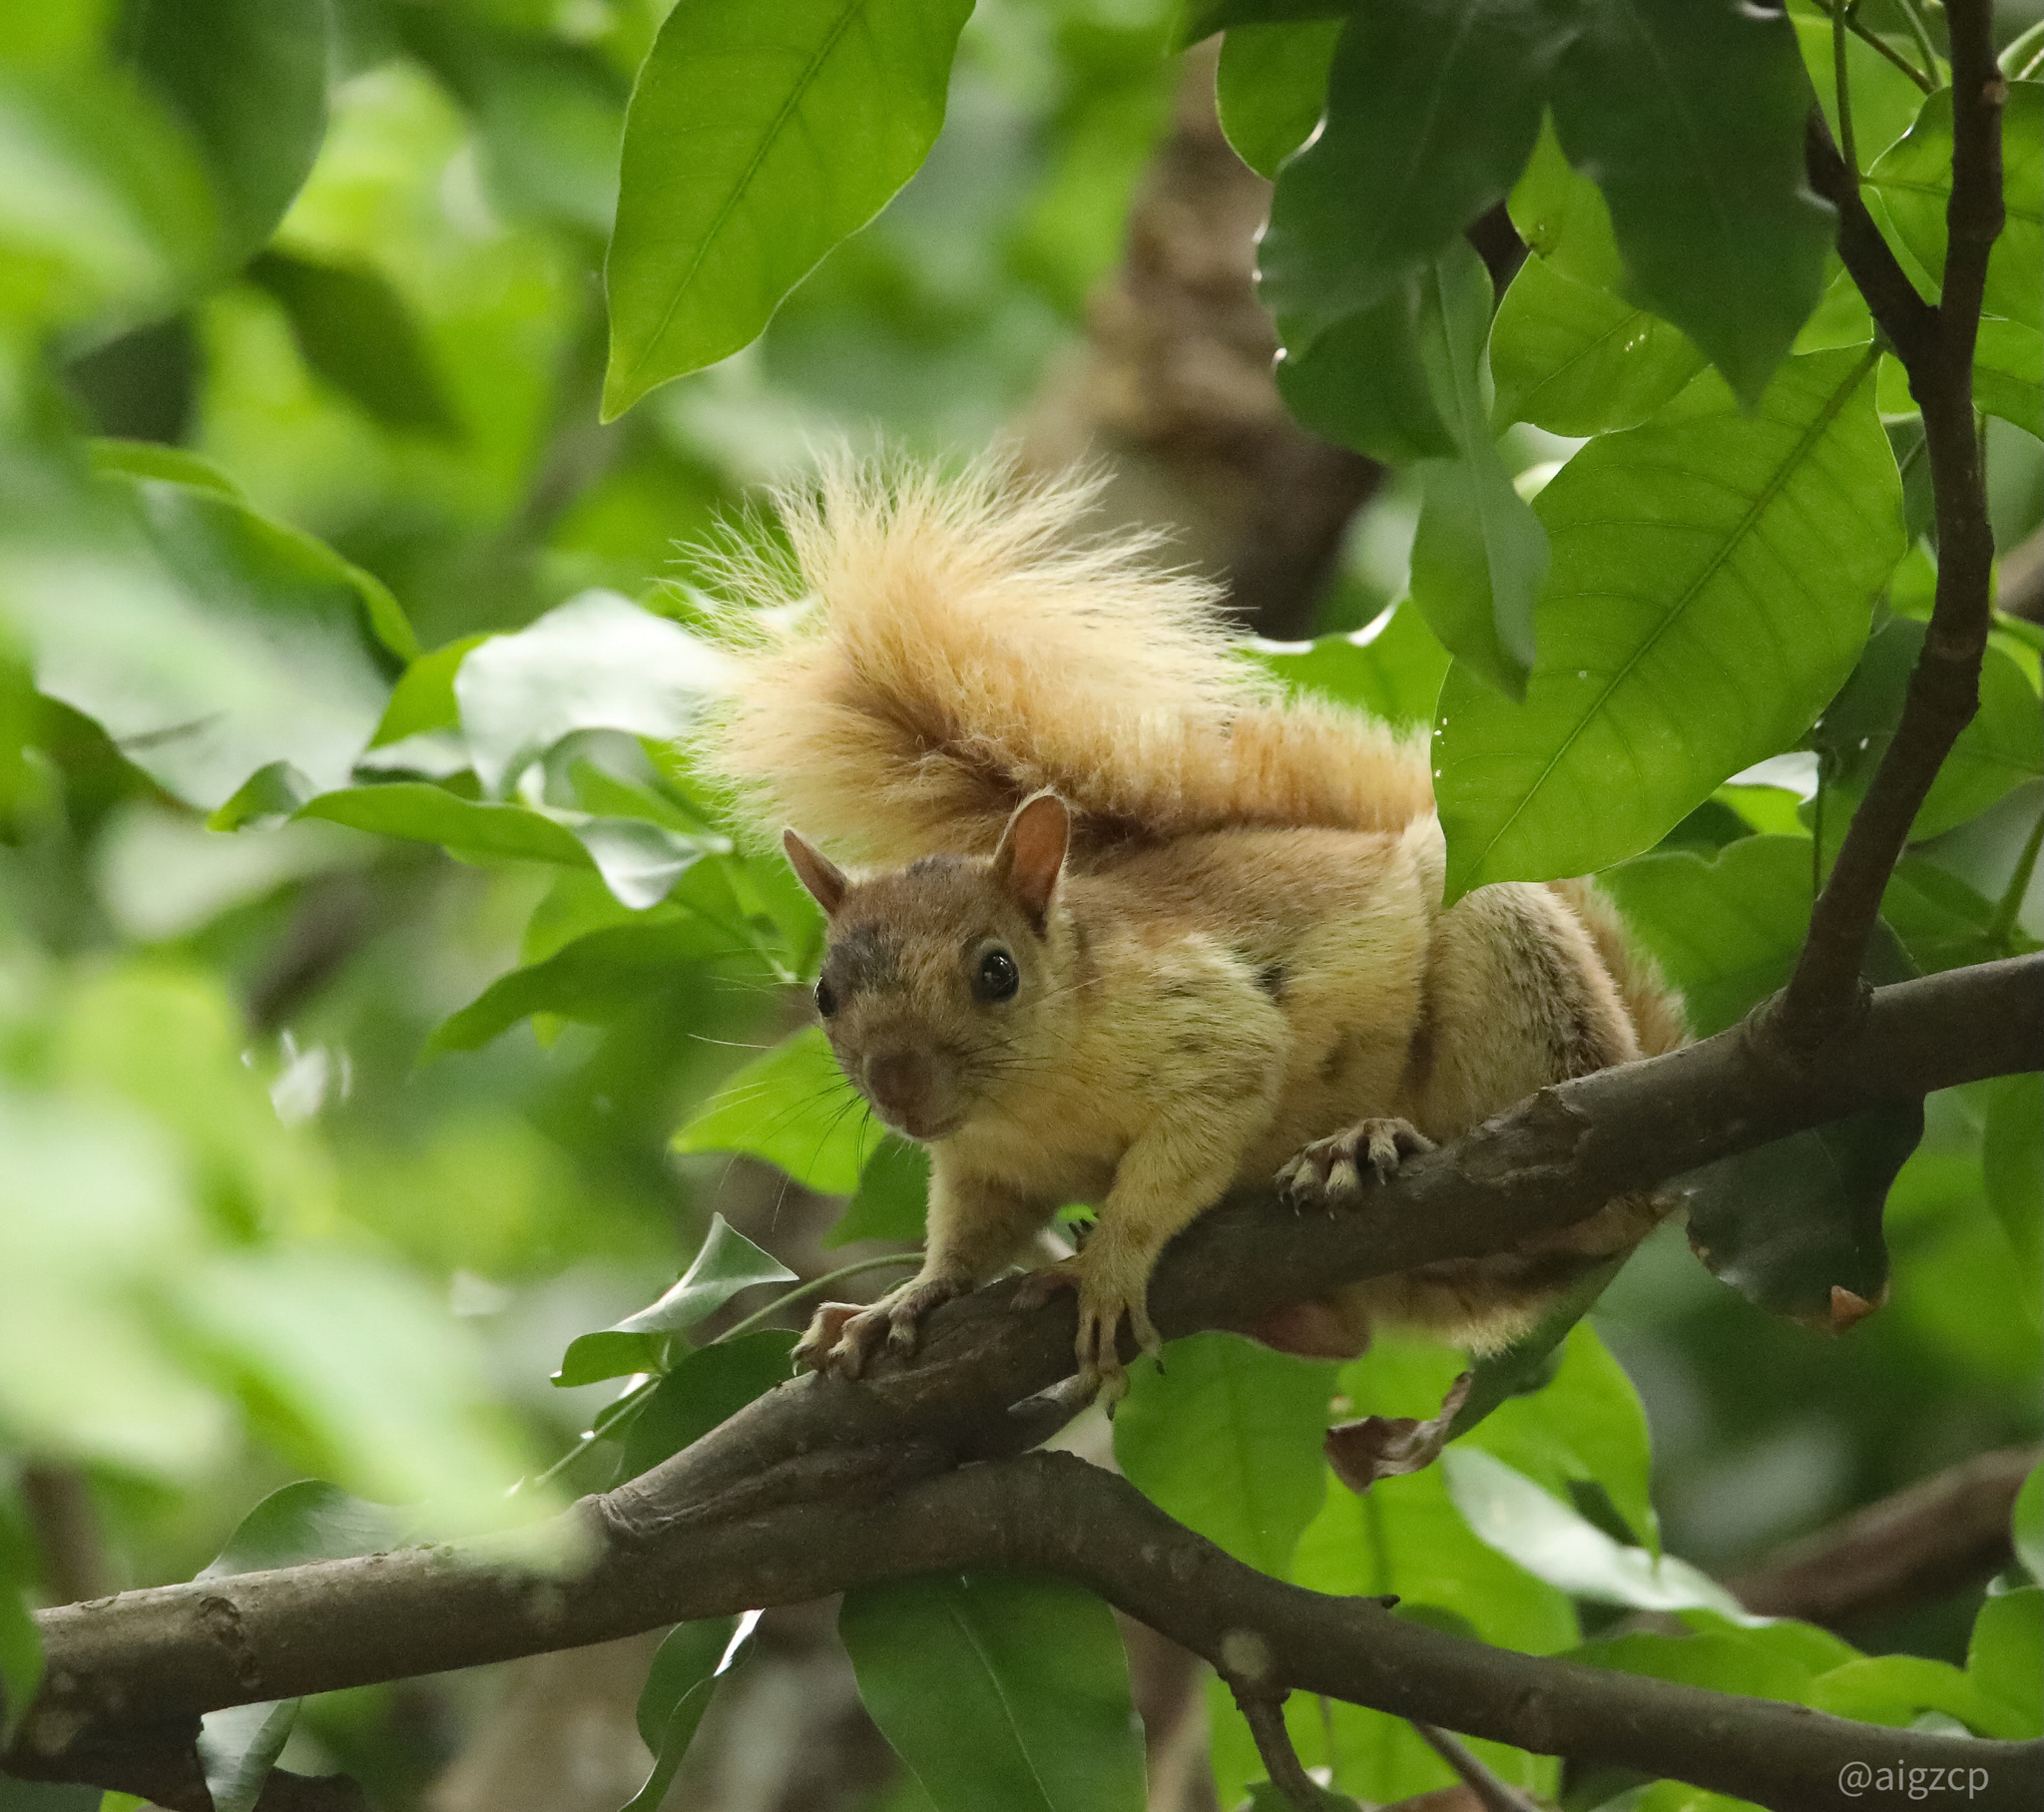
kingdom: Animalia
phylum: Chordata
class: Mammalia
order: Rodentia
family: Sciuridae
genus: Sciurus
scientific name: Sciurus variegatoides
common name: Variegated squirrel
